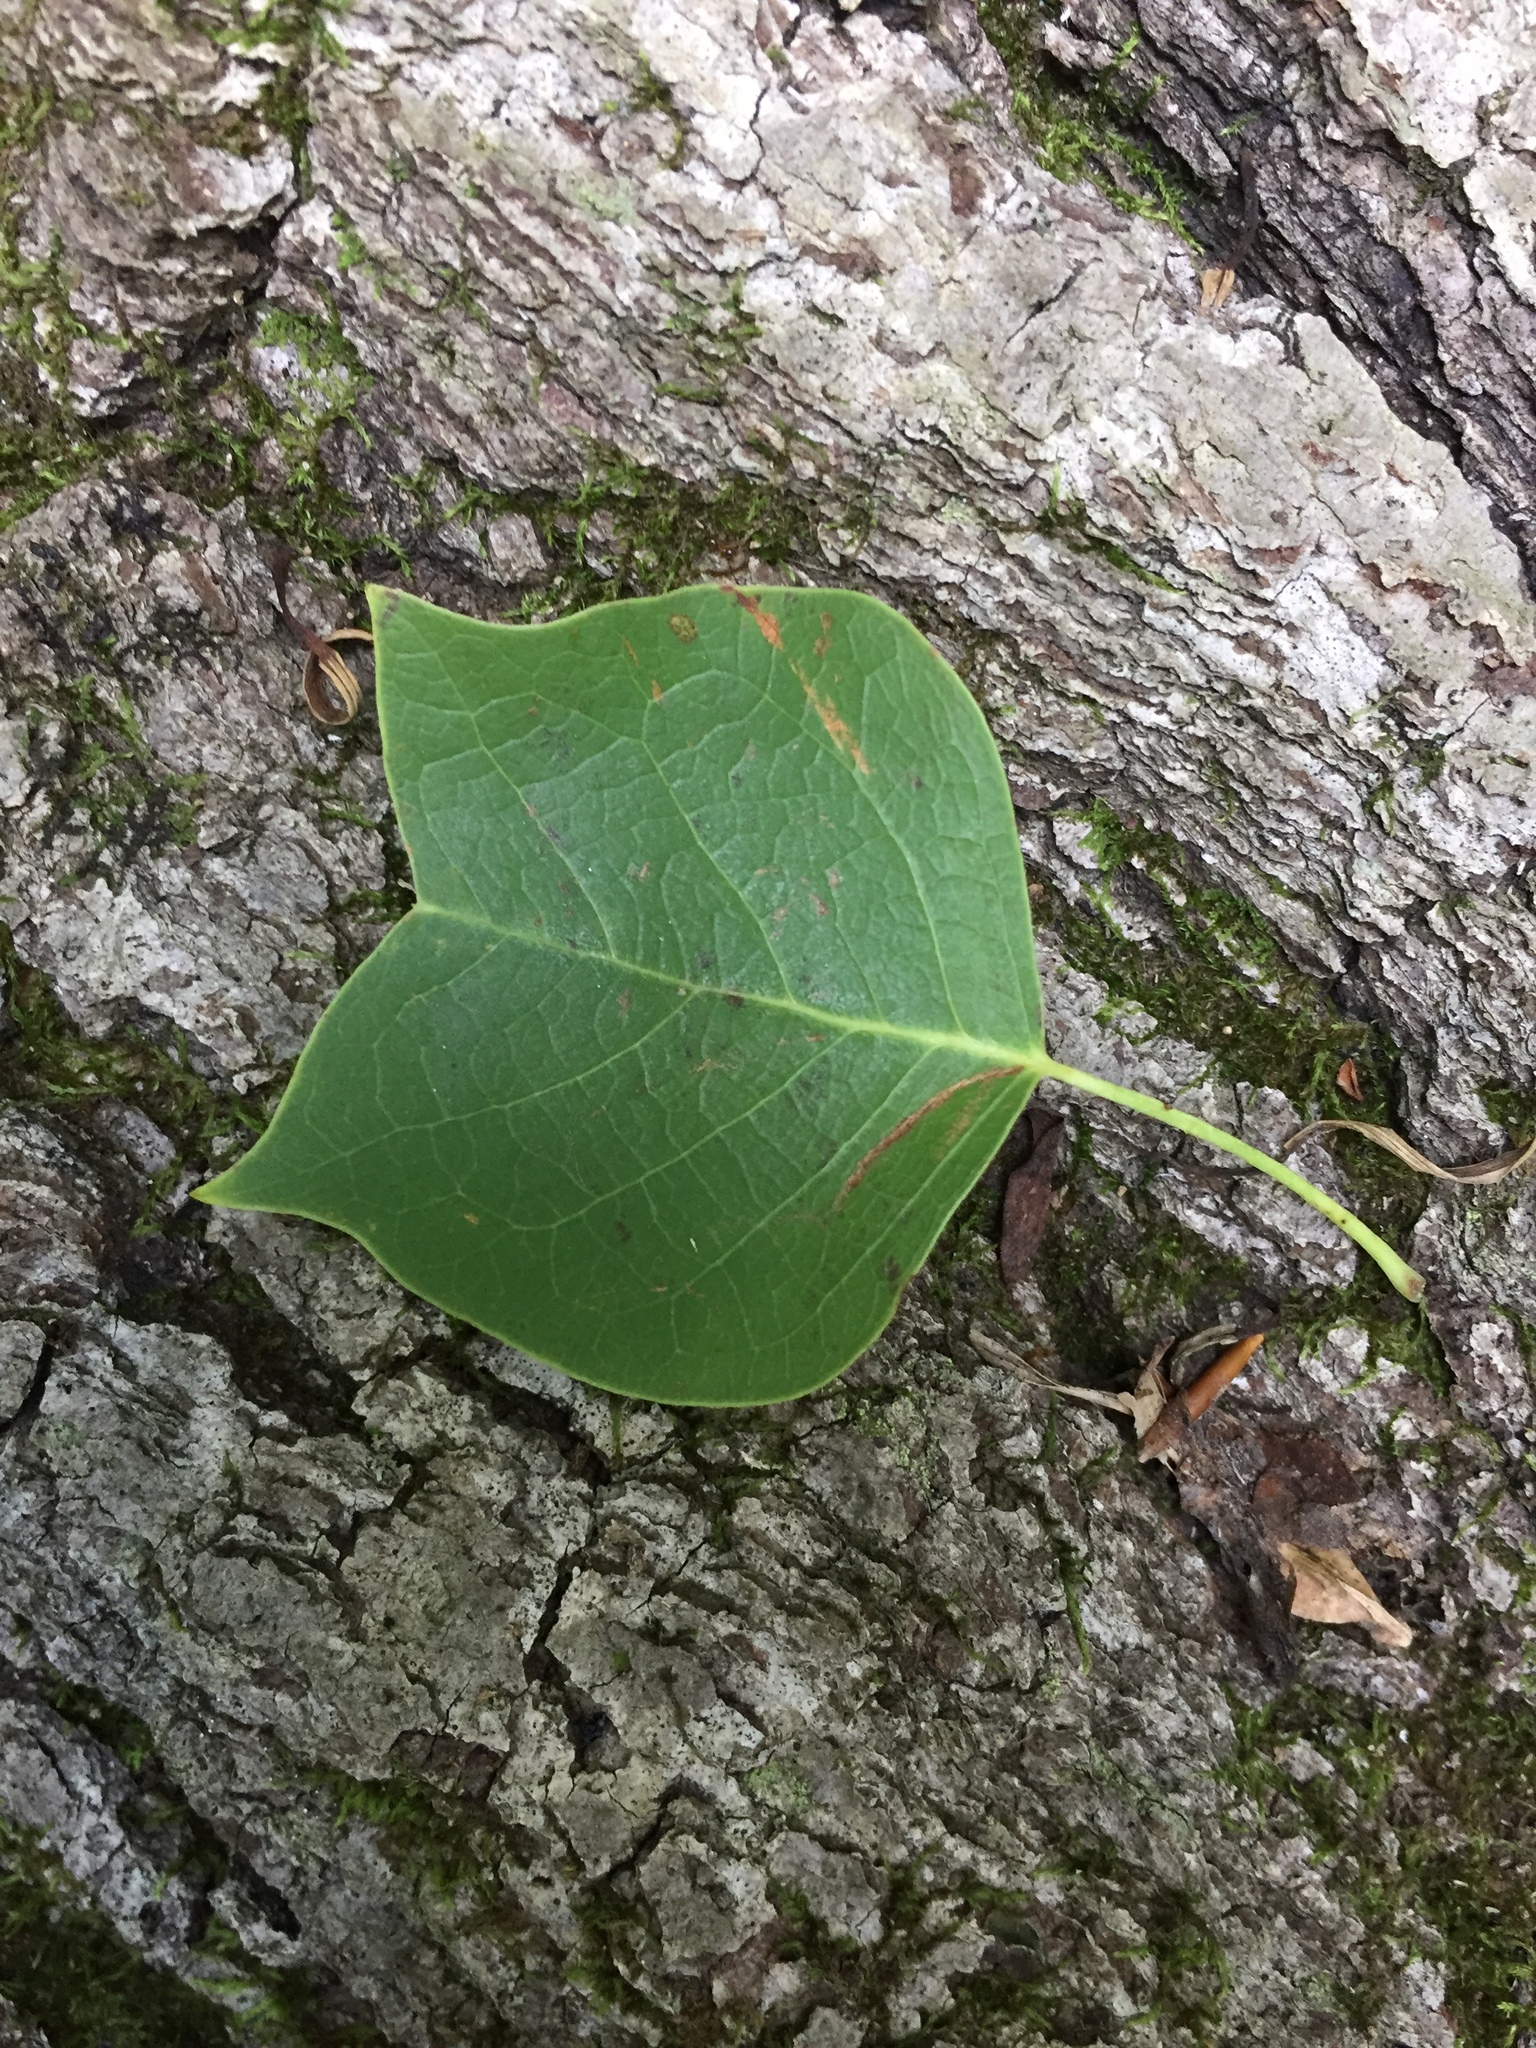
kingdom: Plantae
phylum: Tracheophyta
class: Magnoliopsida
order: Magnoliales
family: Magnoliaceae
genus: Liriodendron
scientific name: Liriodendron tulipifera
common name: Tulip tree
